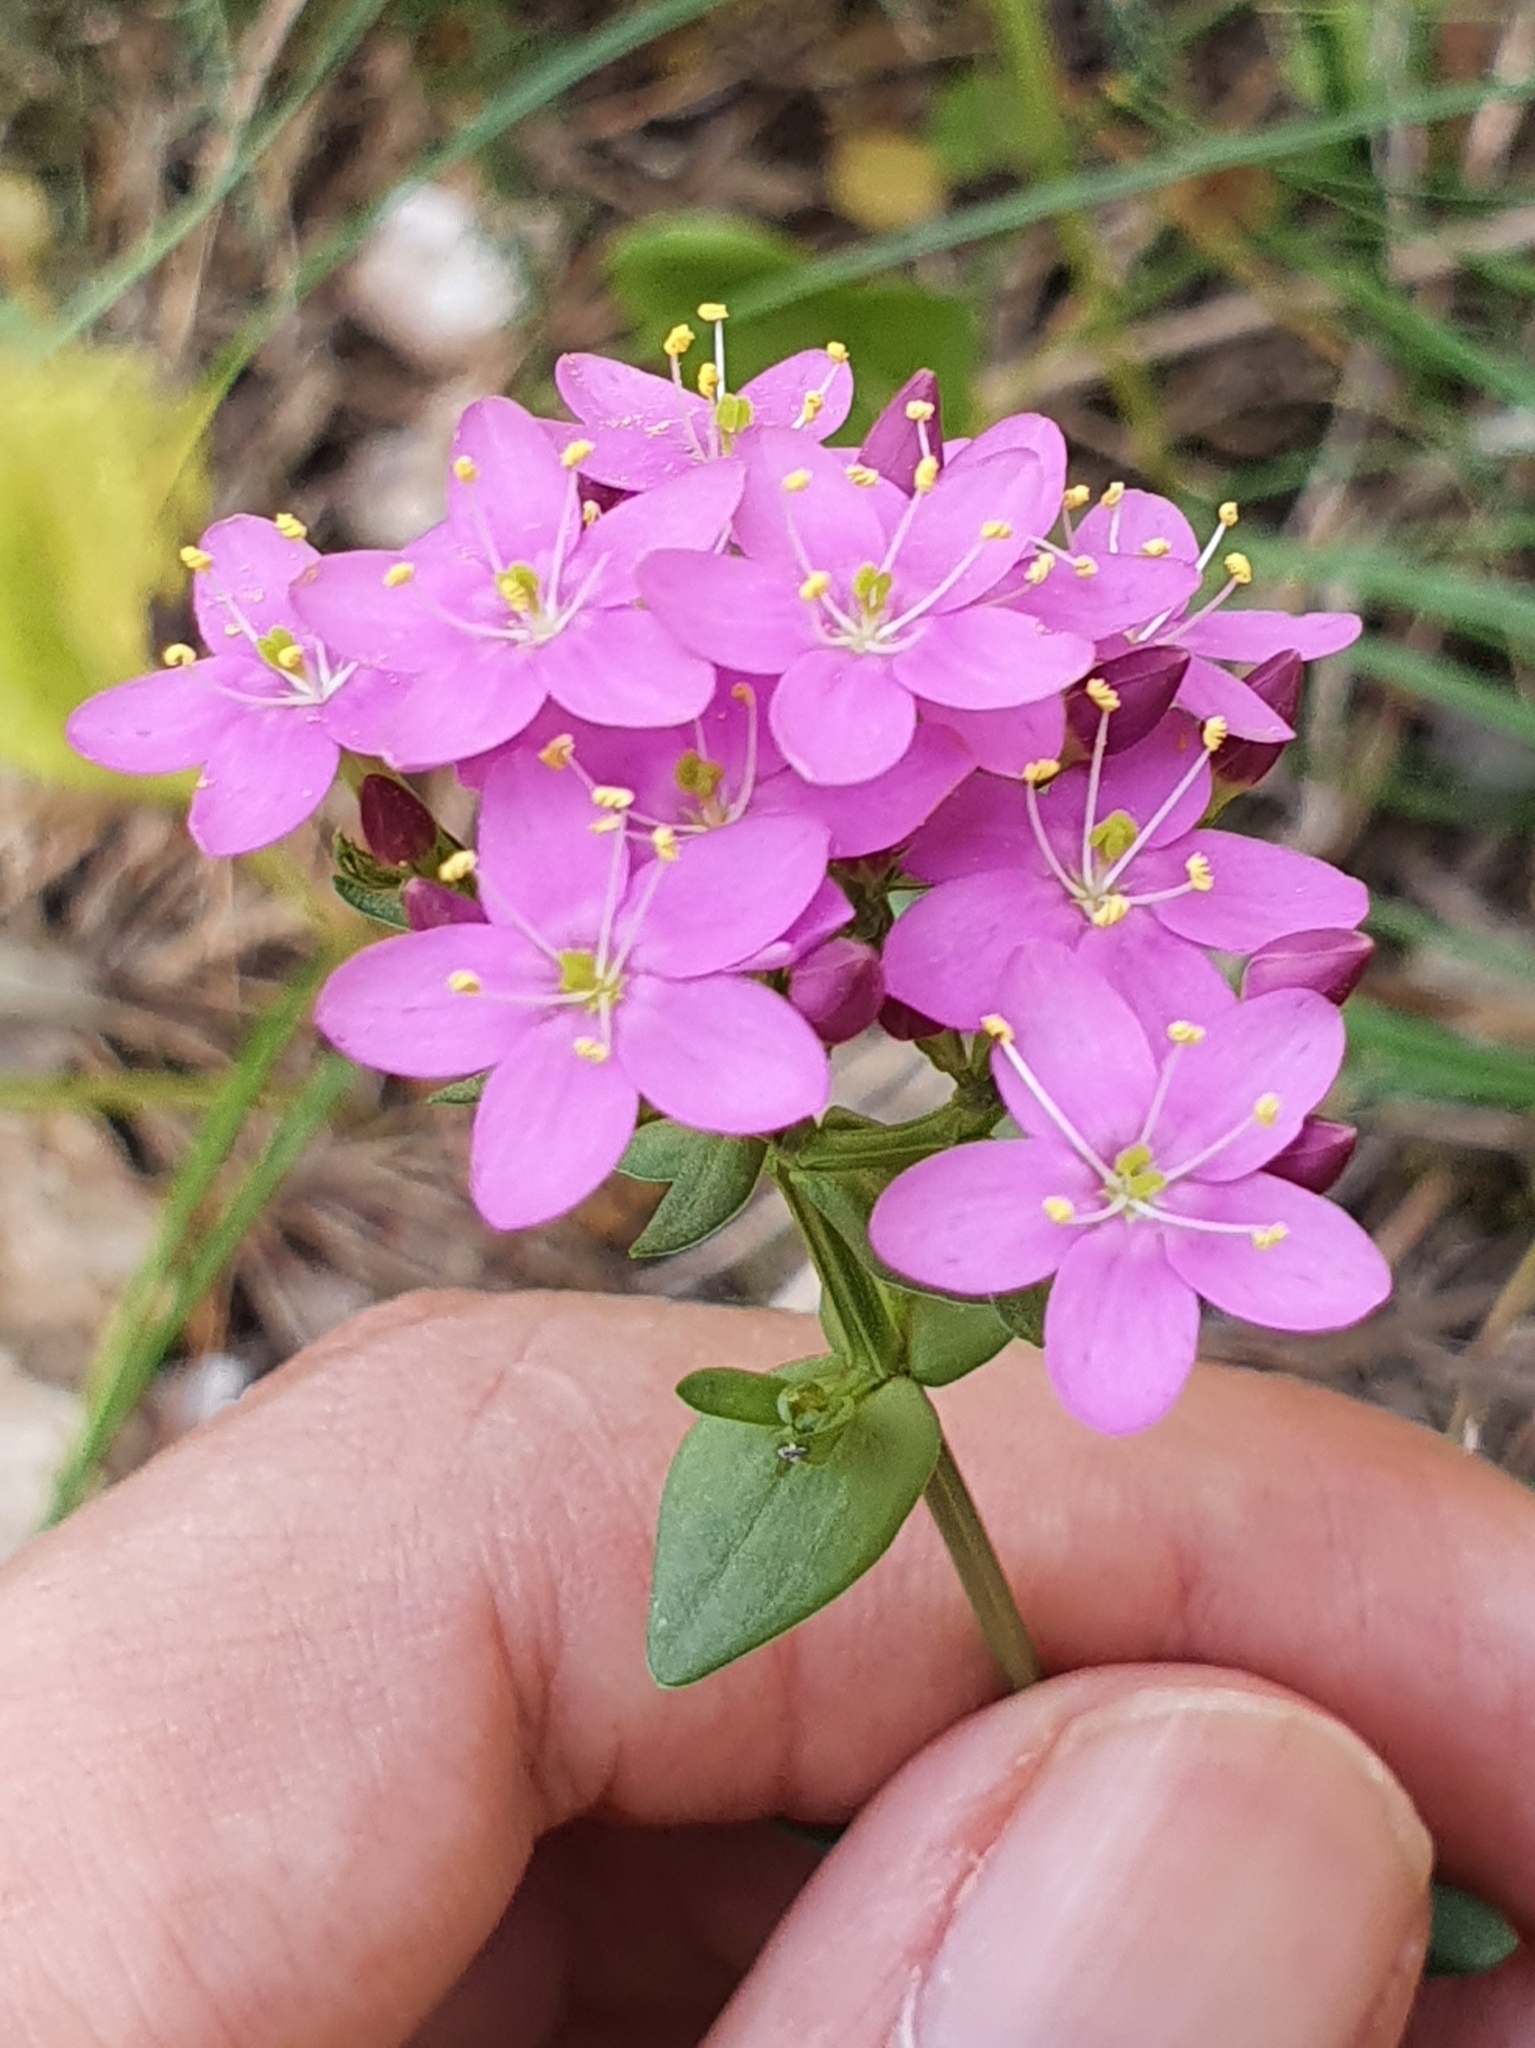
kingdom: Plantae
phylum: Tracheophyta
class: Magnoliopsida
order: Gentianales
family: Gentianaceae
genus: Centaurium
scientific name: Centaurium erythraea
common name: Common centaury
